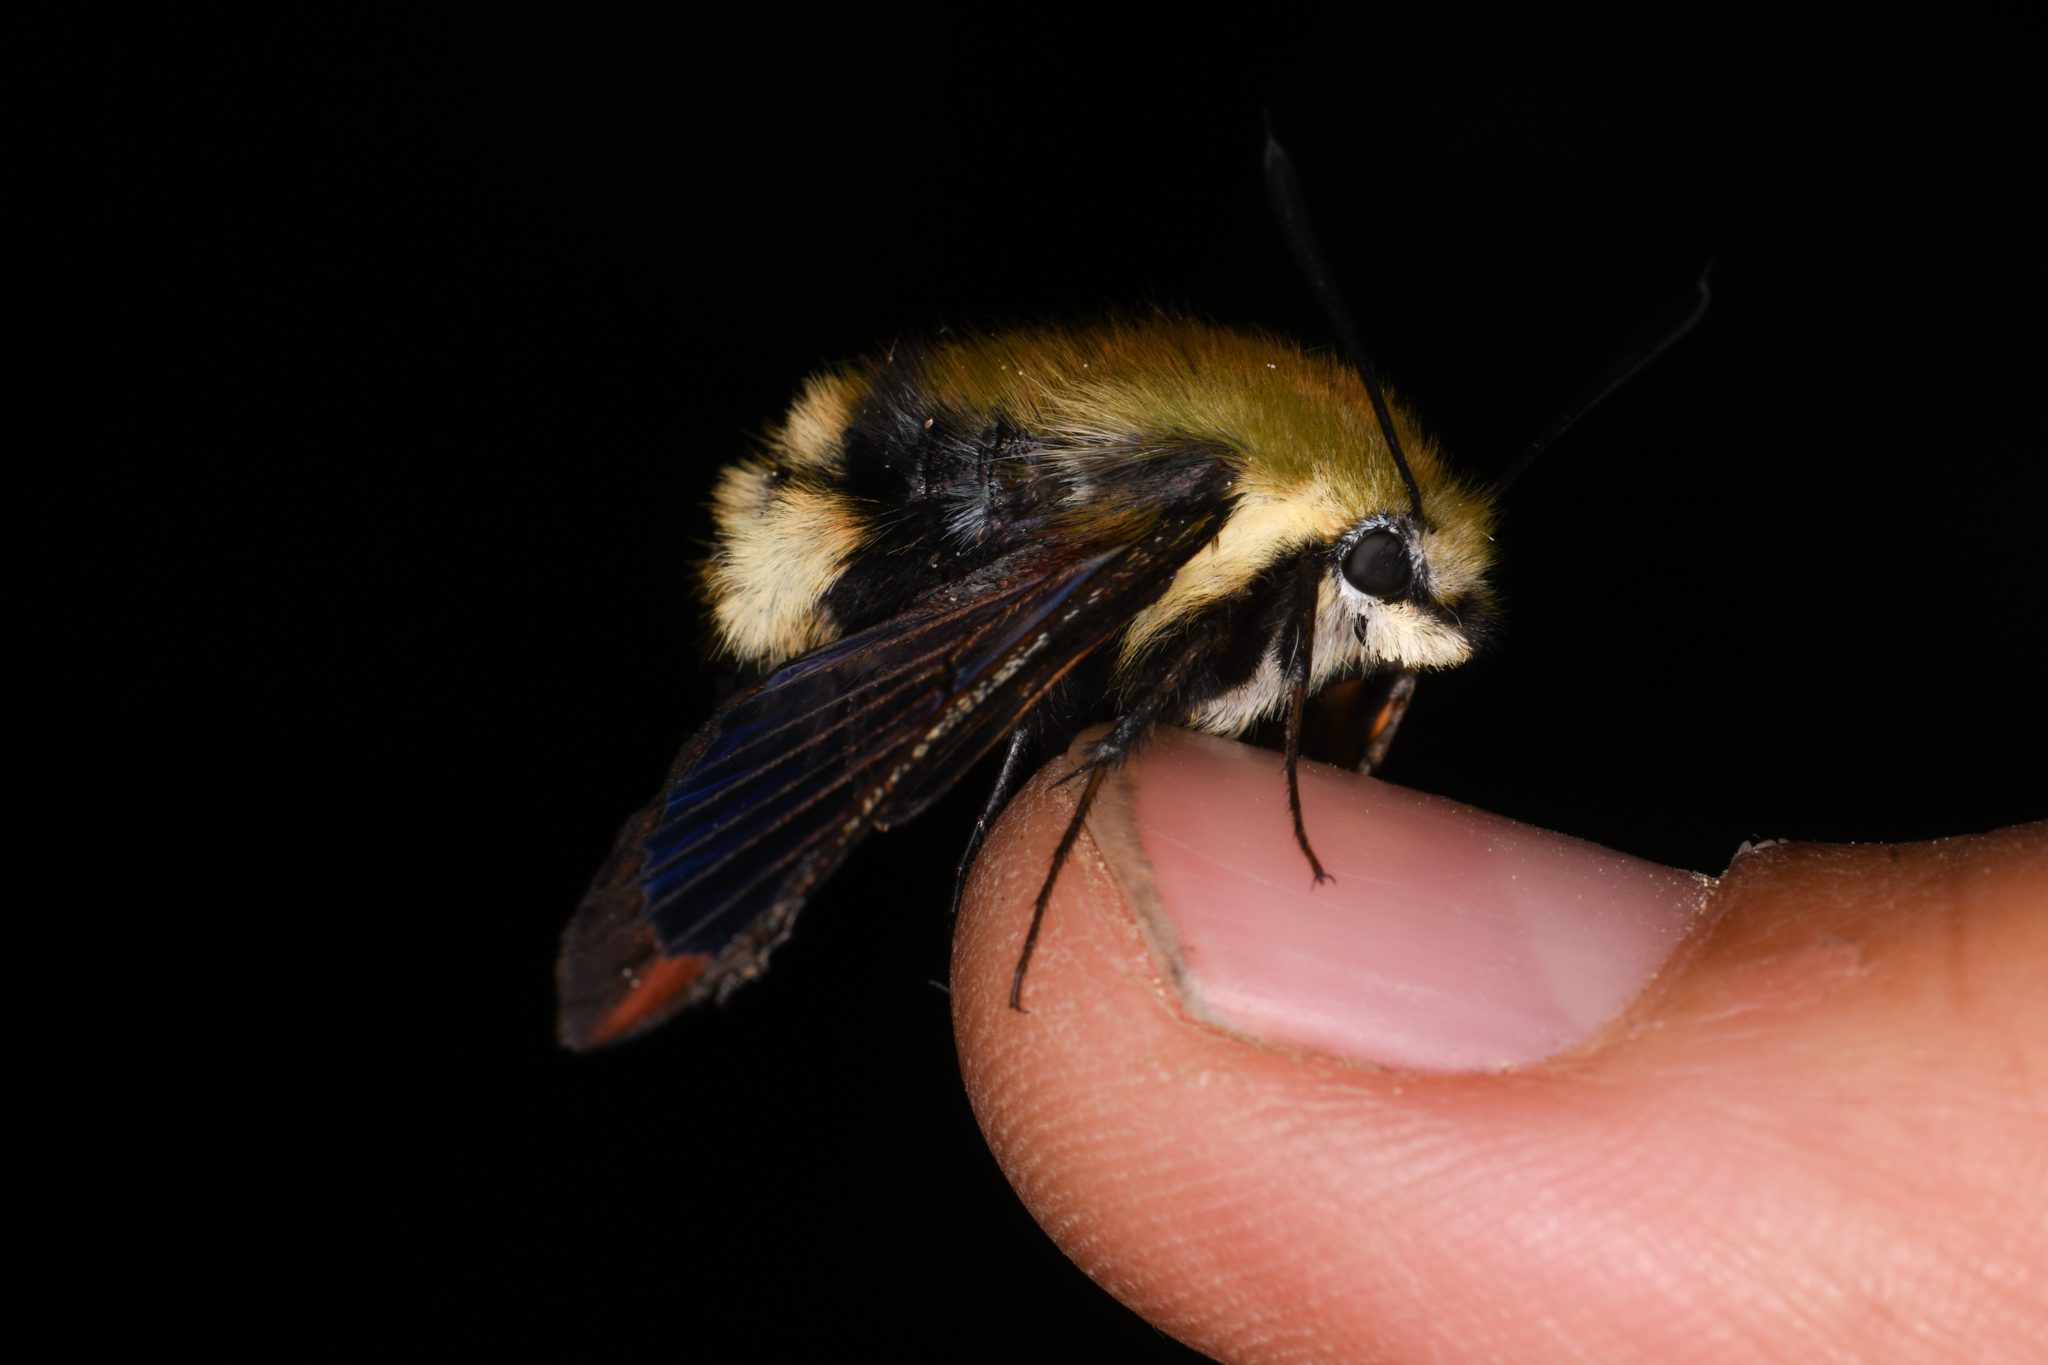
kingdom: Animalia
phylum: Arthropoda
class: Insecta
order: Lepidoptera
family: Sphingidae
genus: Hemaris
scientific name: Hemaris thetis
